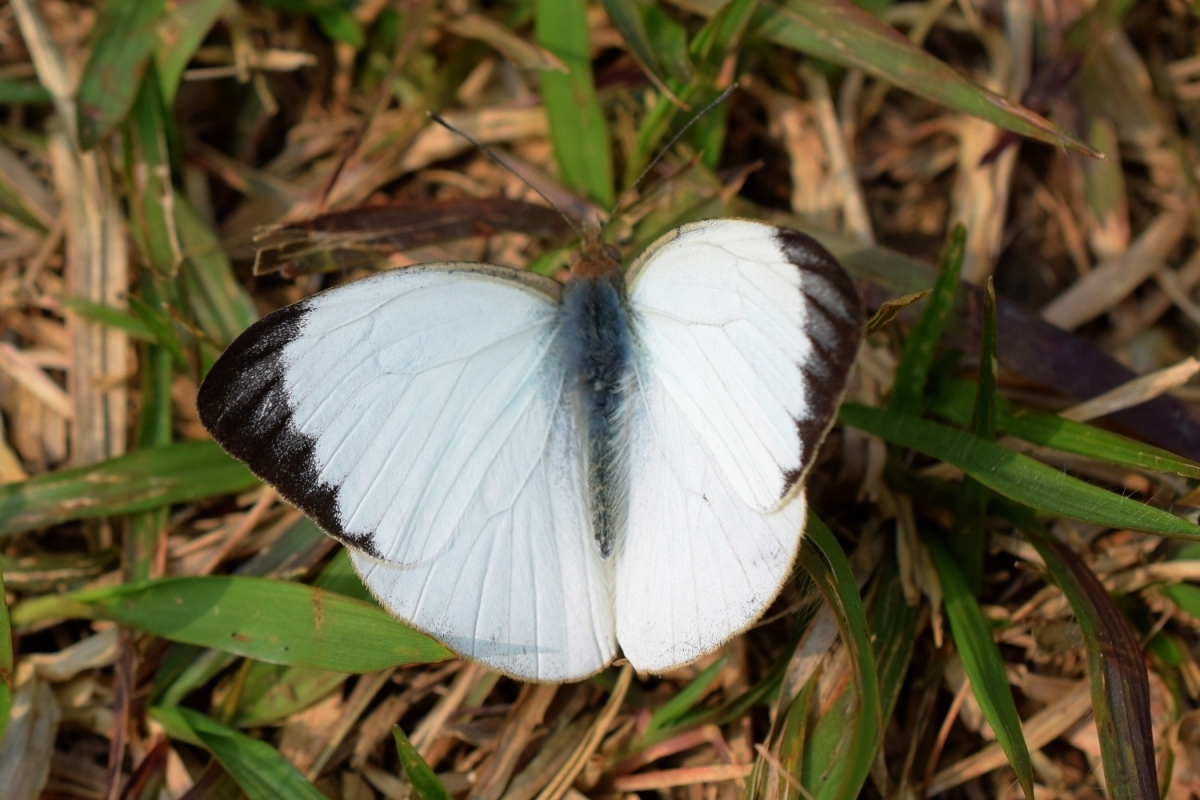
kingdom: Animalia
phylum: Arthropoda
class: Insecta
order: Lepidoptera
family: Pieridae
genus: Cepora
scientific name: Cepora nadina
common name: Lesser gull
